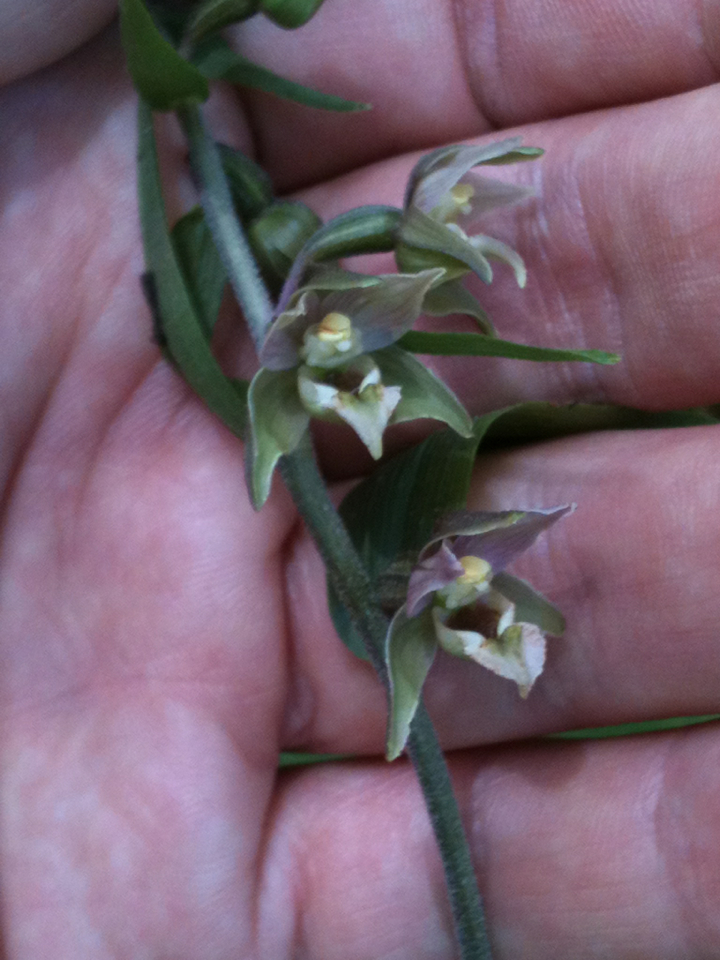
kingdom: Plantae
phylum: Tracheophyta
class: Liliopsida
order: Asparagales
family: Orchidaceae
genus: Epipactis
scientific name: Epipactis helleborine
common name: Broad-leaved helleborine
